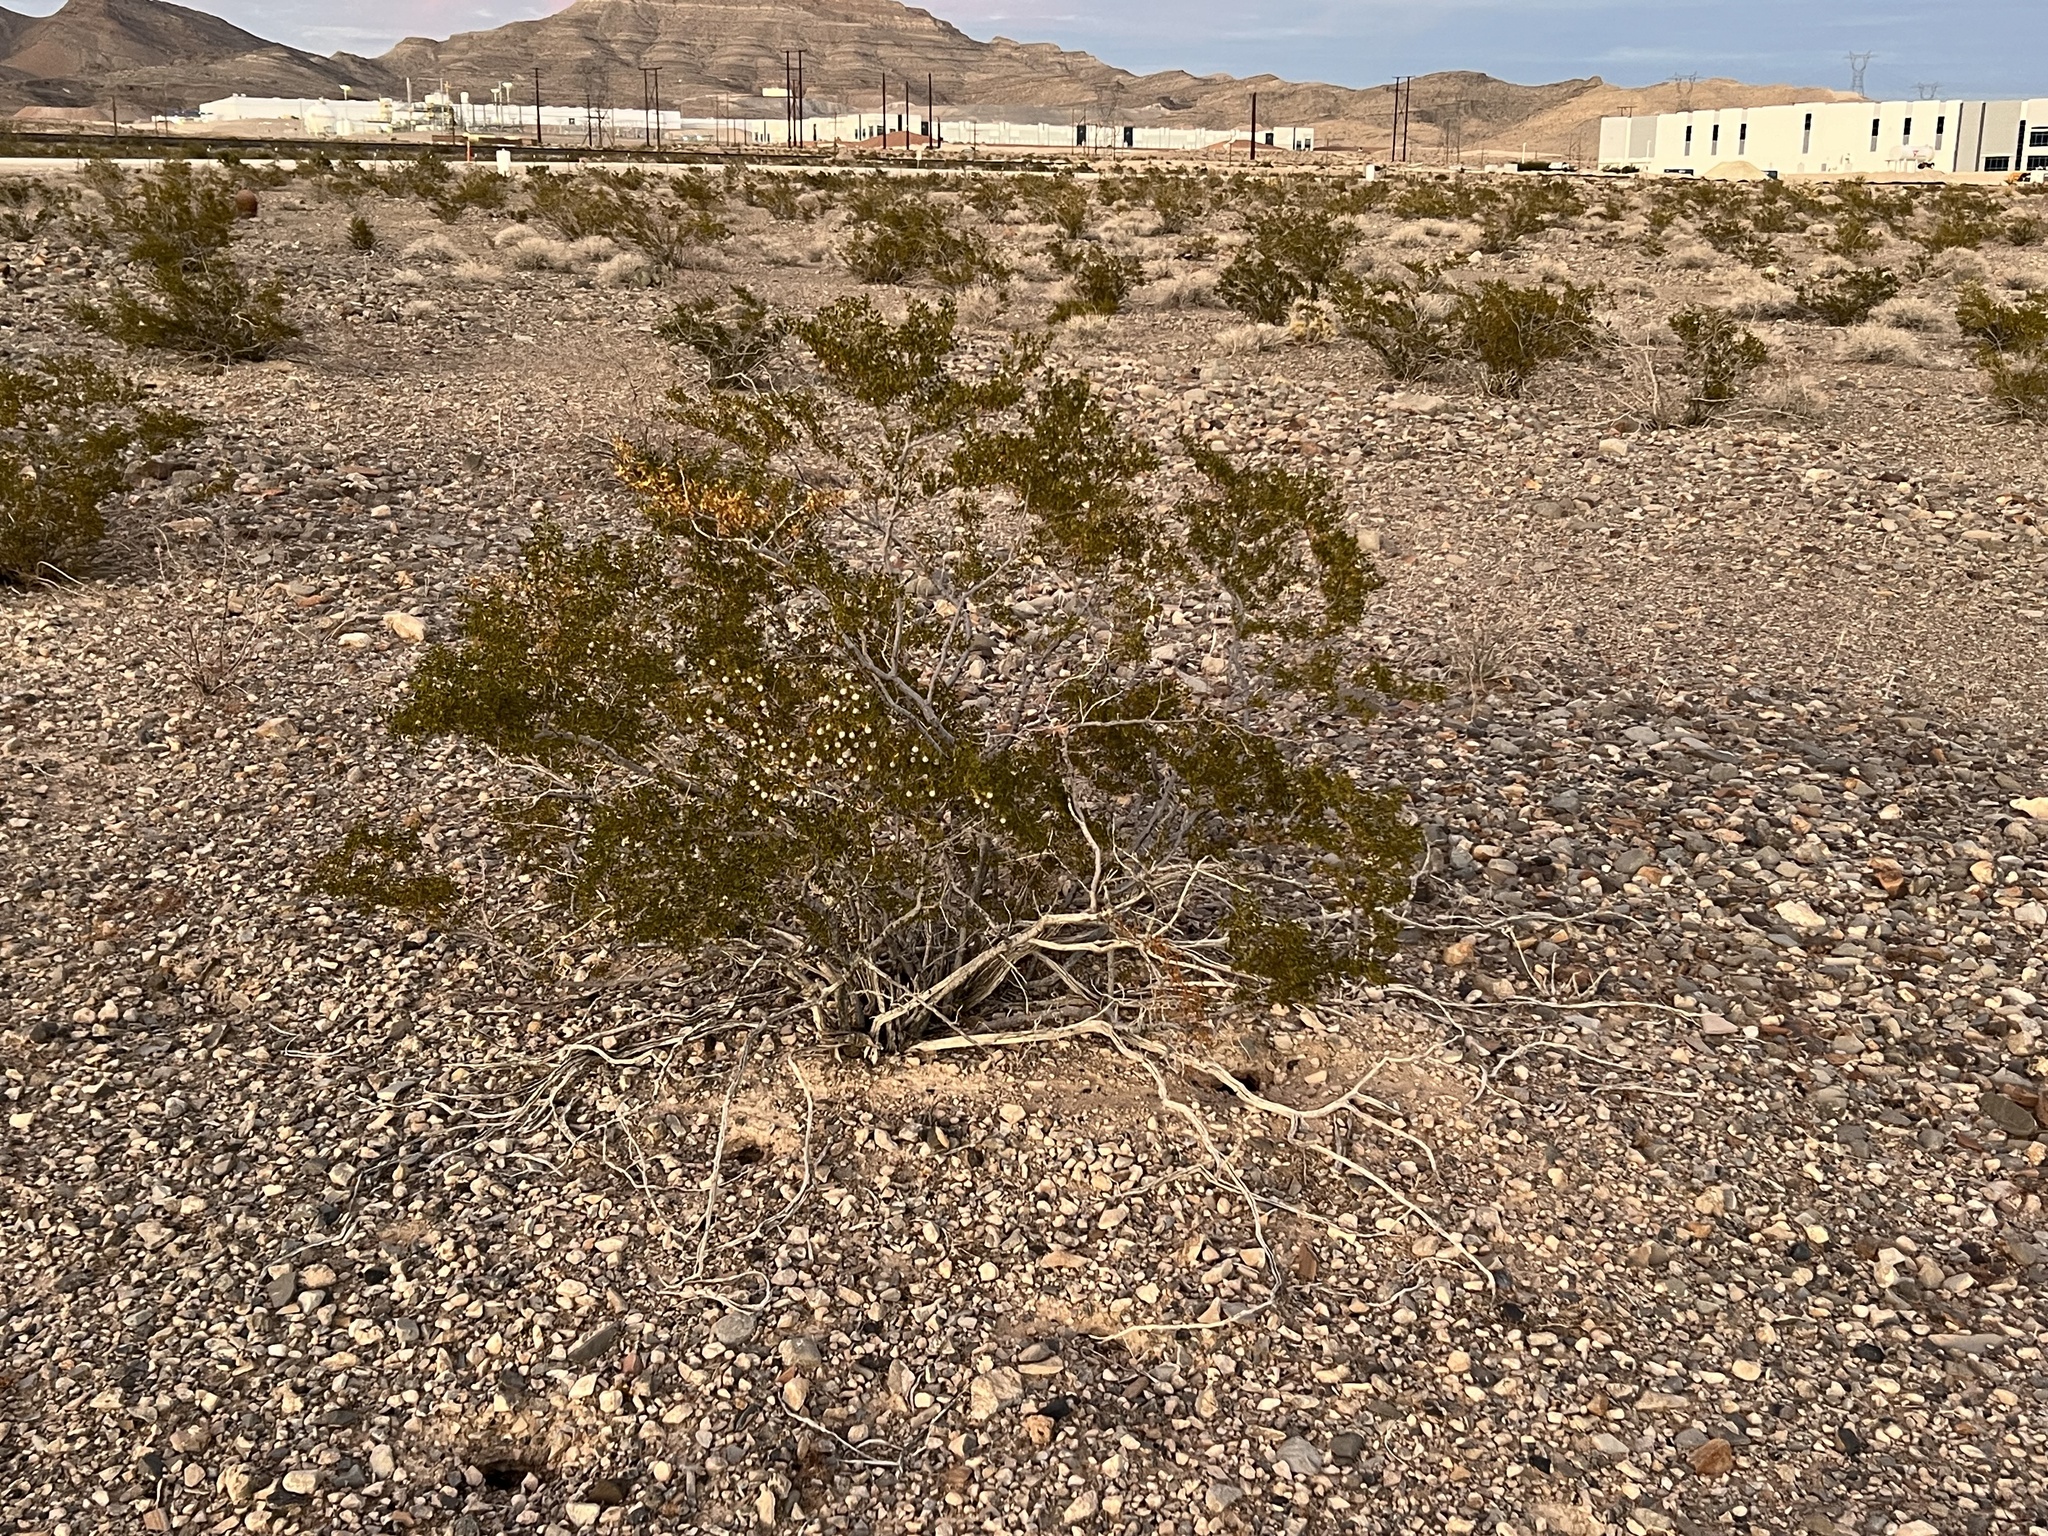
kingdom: Plantae
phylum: Tracheophyta
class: Magnoliopsida
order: Zygophyllales
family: Zygophyllaceae
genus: Larrea
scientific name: Larrea tridentata
